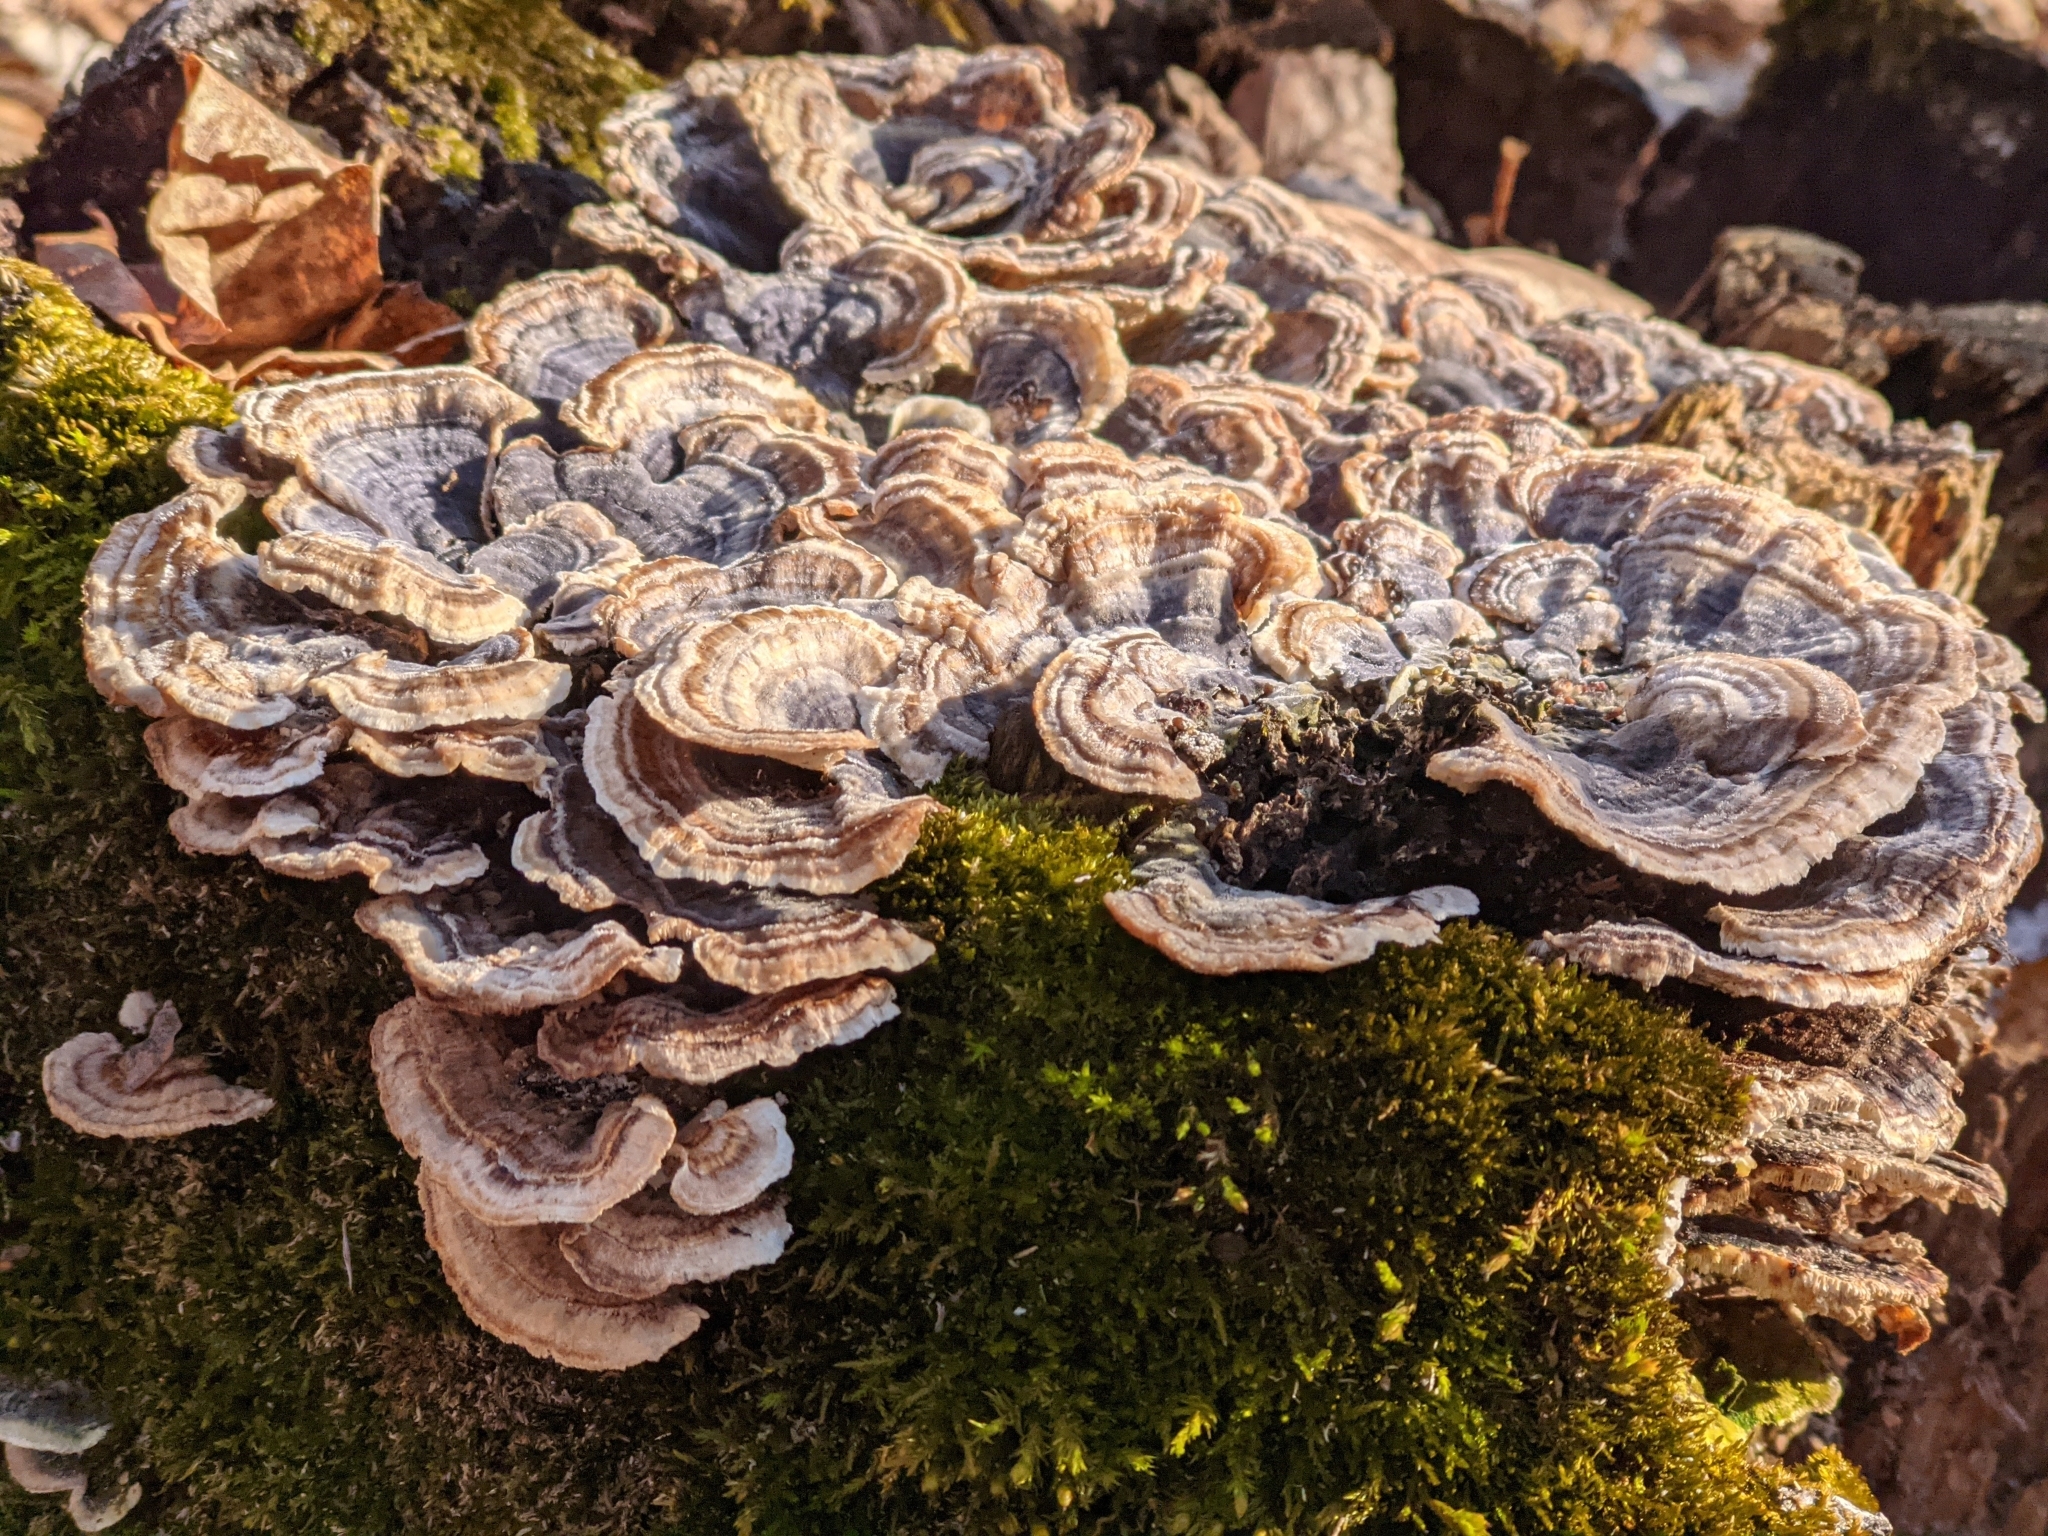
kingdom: Fungi
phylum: Basidiomycota
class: Agaricomycetes
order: Polyporales
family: Polyporaceae
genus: Trametes
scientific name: Trametes versicolor
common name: Turkeytail
